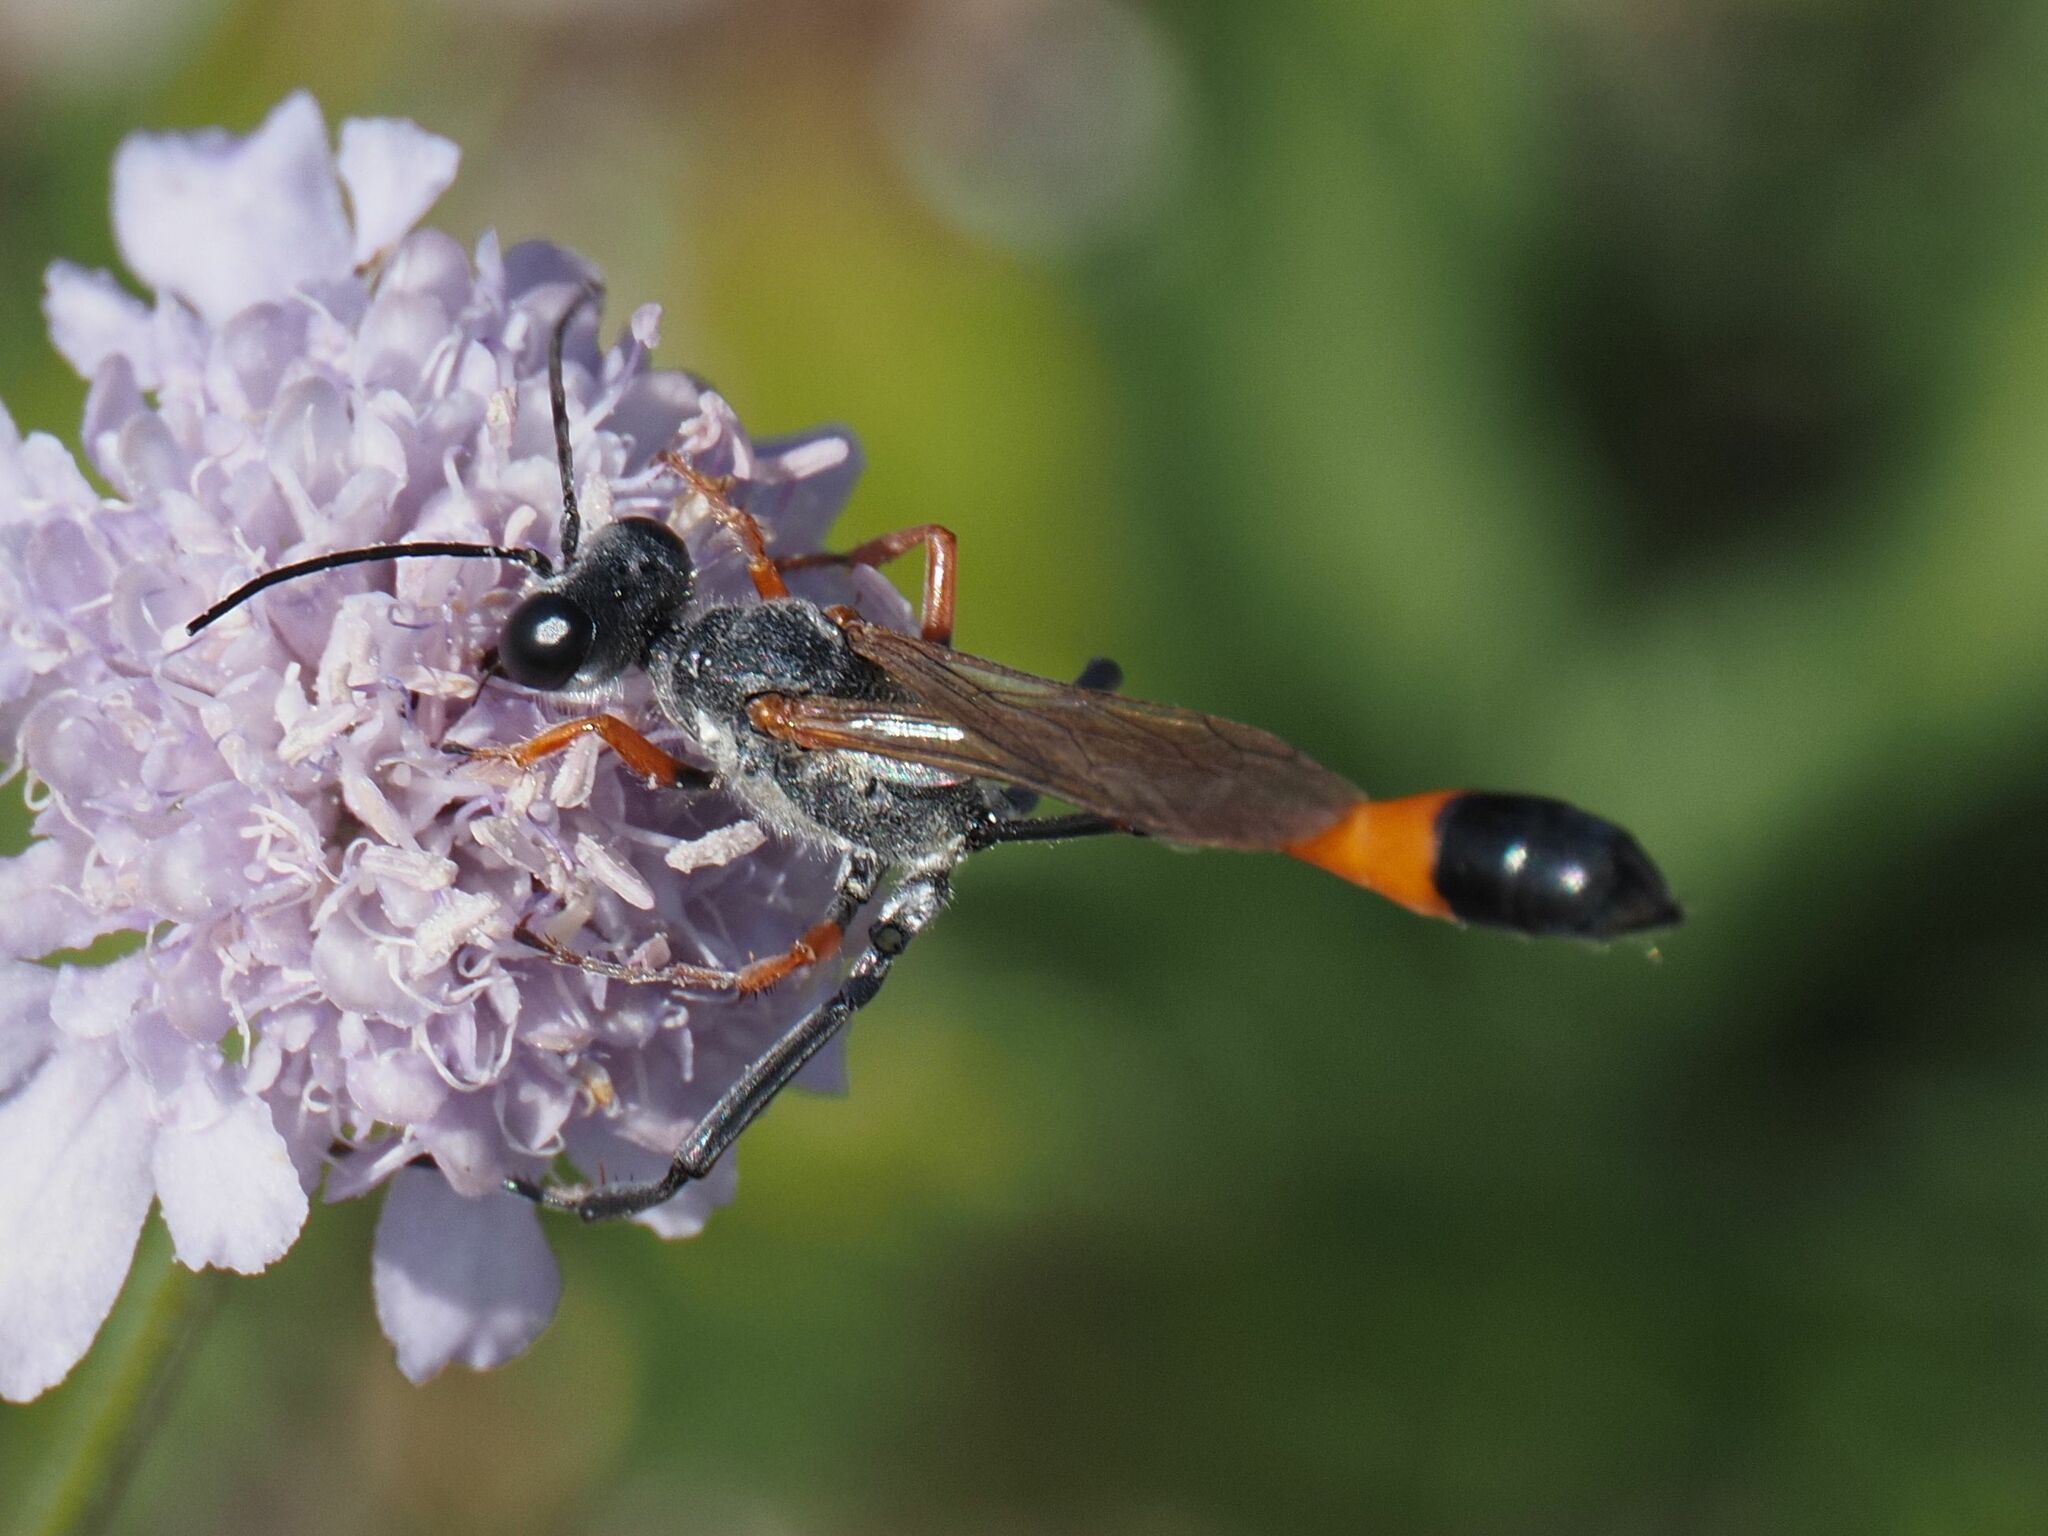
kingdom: Animalia
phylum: Arthropoda
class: Insecta
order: Hymenoptera
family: Sphecidae
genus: Ammophila
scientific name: Ammophila heydeni
